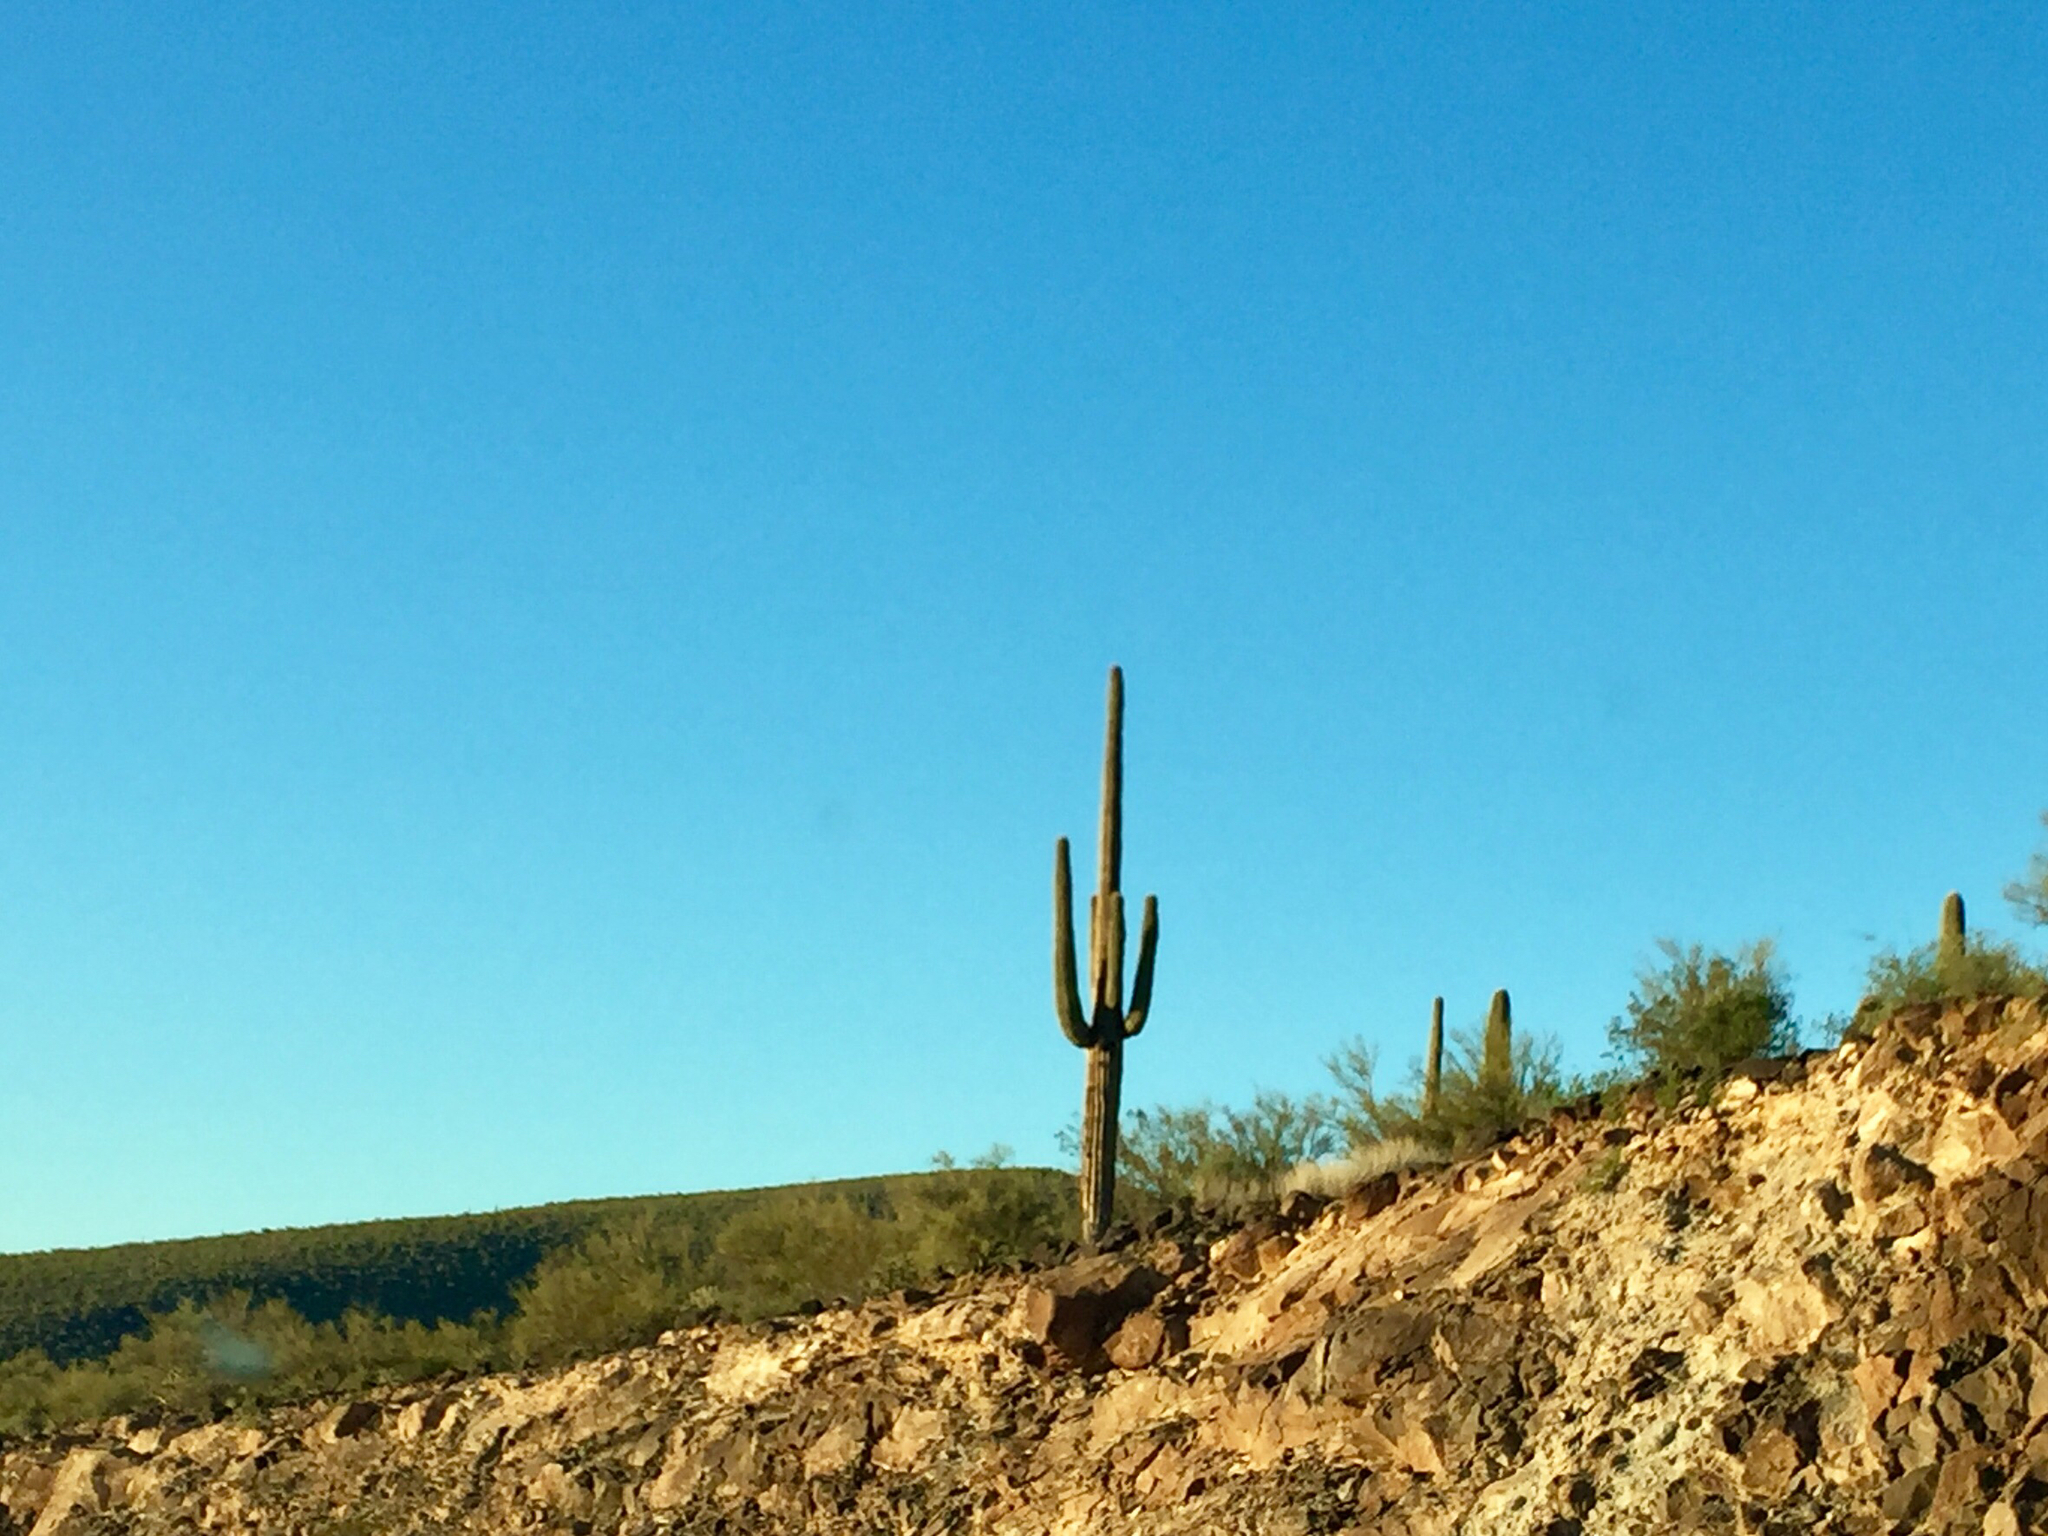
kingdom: Plantae
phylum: Tracheophyta
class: Magnoliopsida
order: Caryophyllales
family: Cactaceae
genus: Carnegiea
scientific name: Carnegiea gigantea
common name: Saguaro
